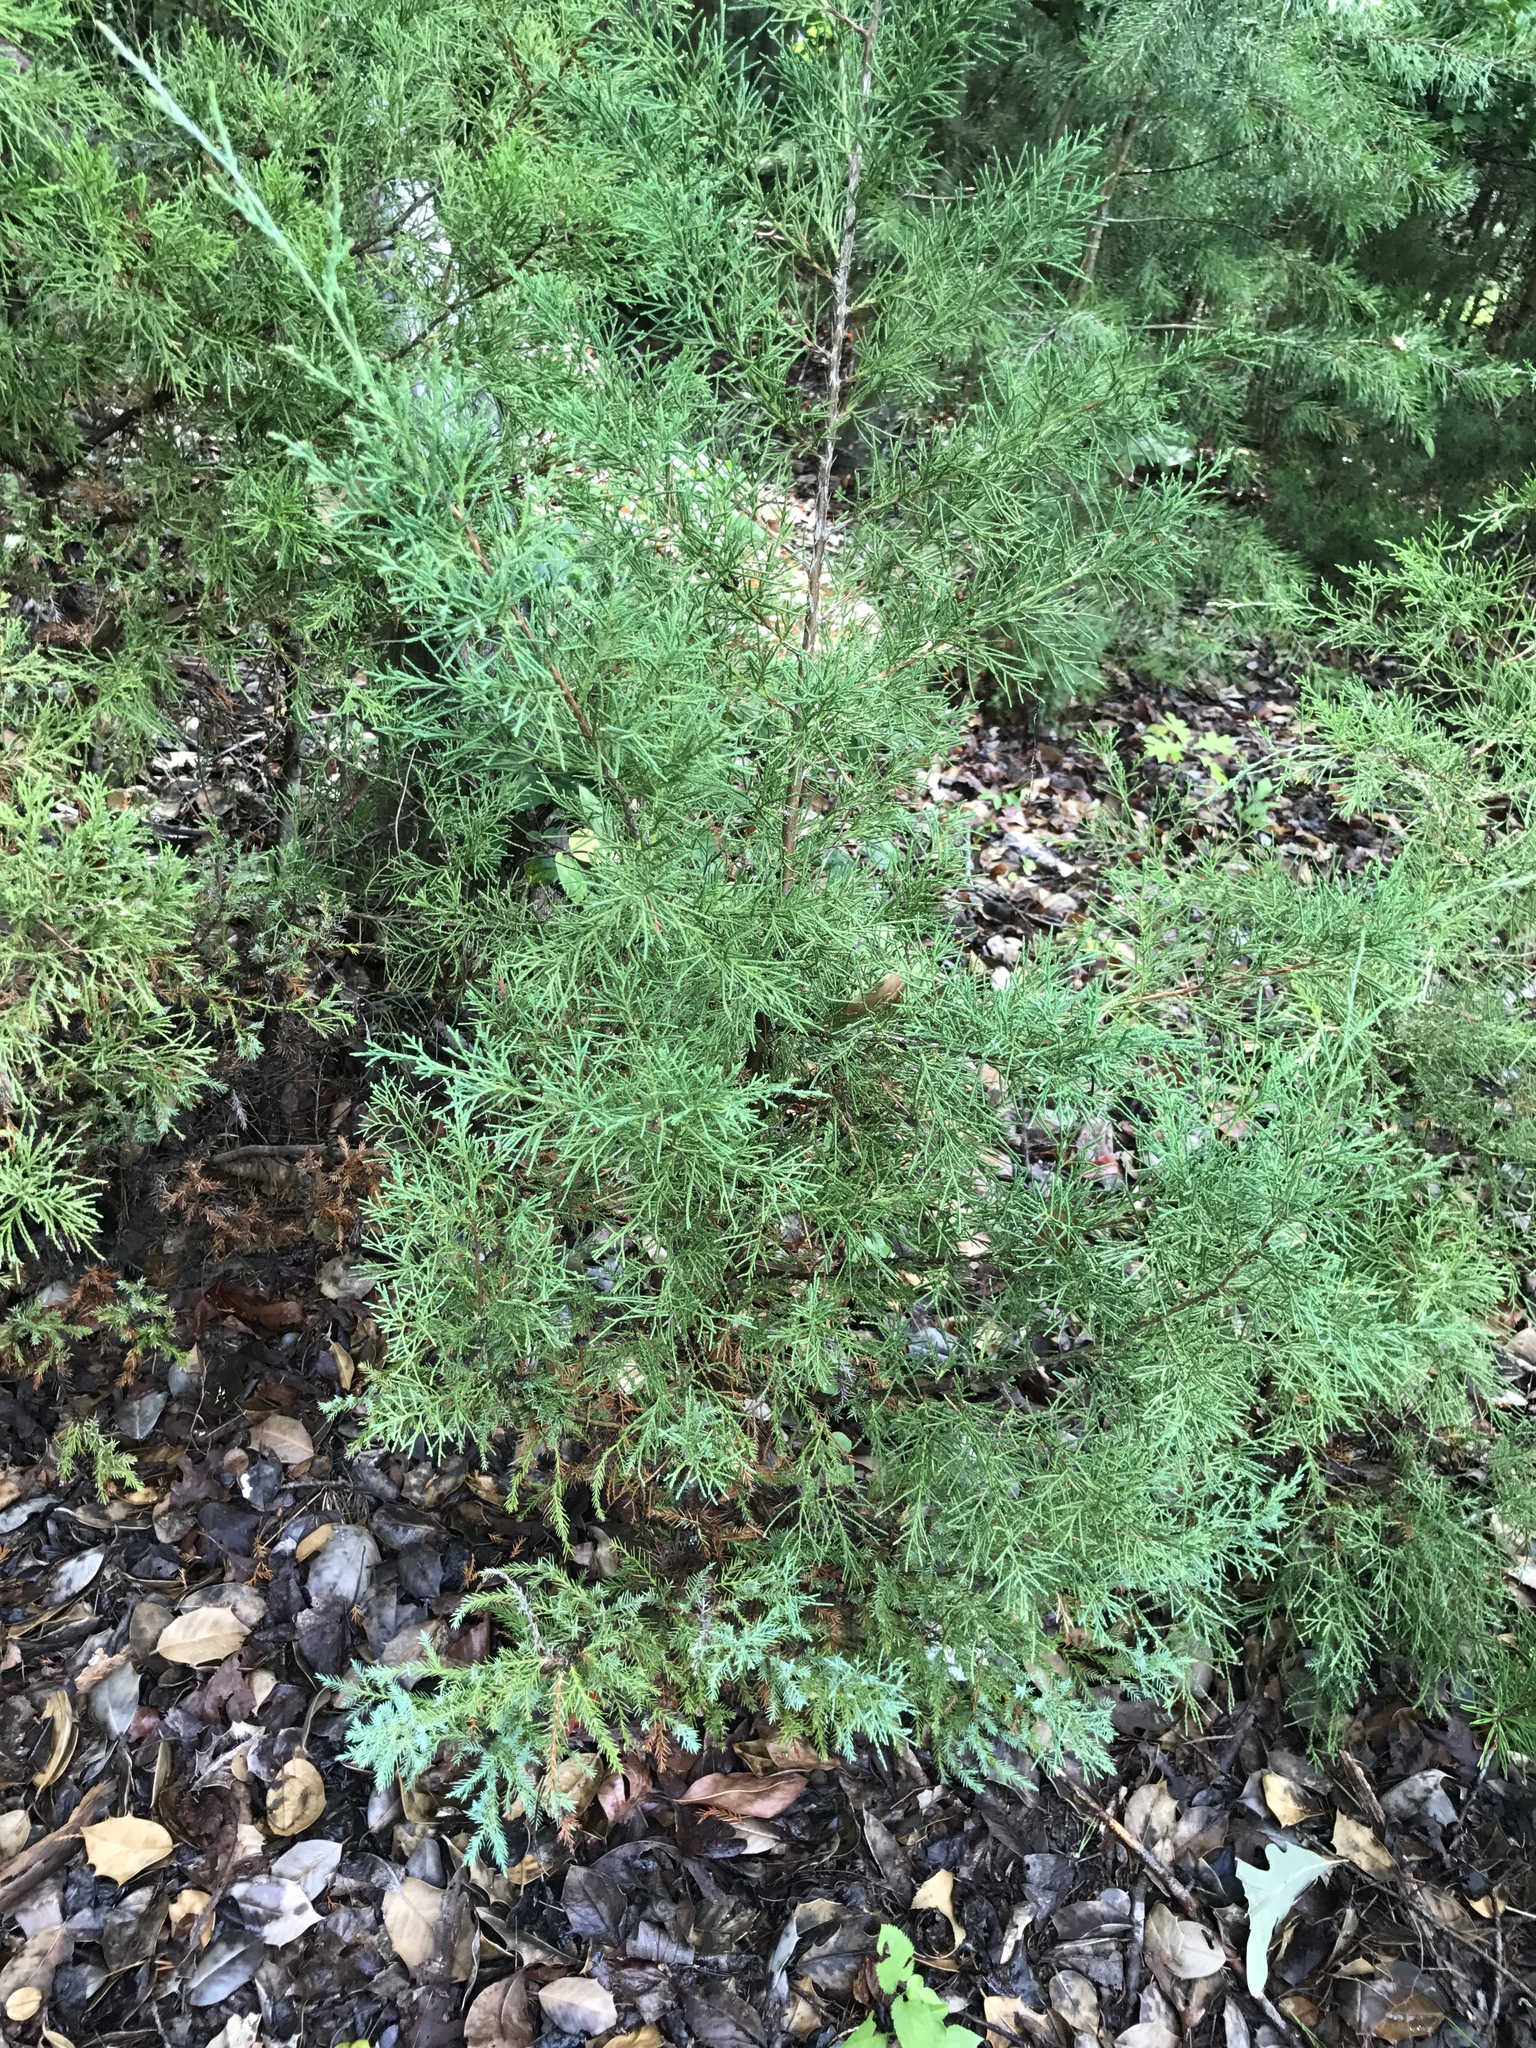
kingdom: Plantae
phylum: Tracheophyta
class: Pinopsida
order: Pinales
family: Cupressaceae
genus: Juniperus
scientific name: Juniperus virginiana
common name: Red juniper
